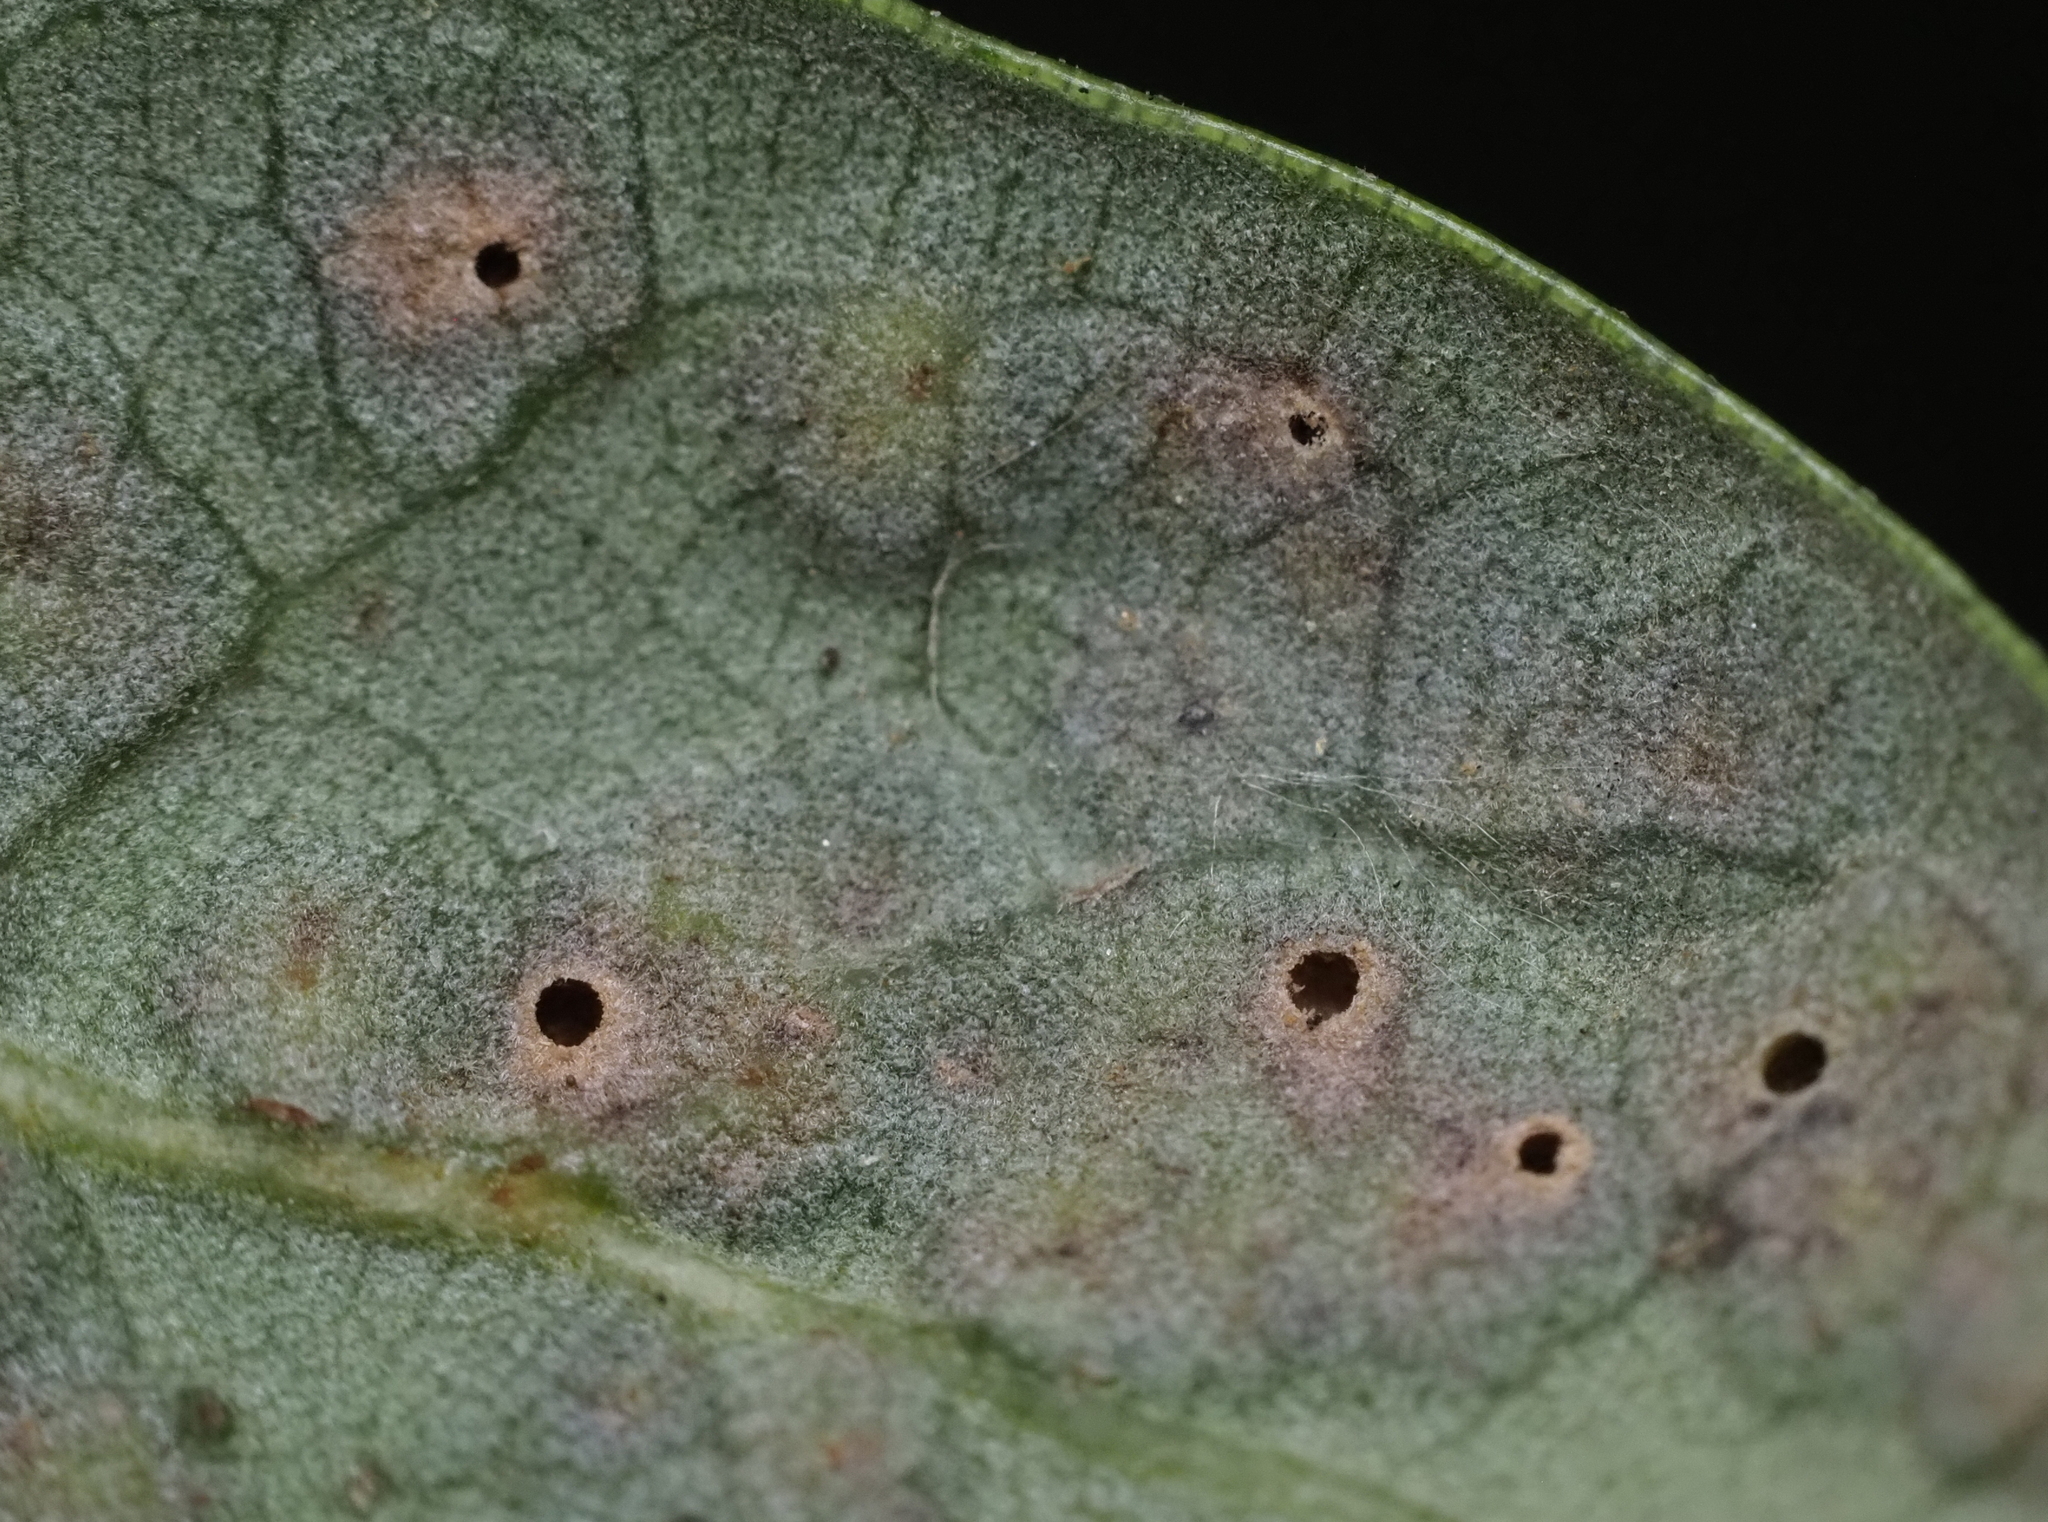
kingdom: Animalia
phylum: Arthropoda
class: Insecta
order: Hymenoptera
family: Cynipidae
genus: Neuroterus
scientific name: Neuroterus bussae
